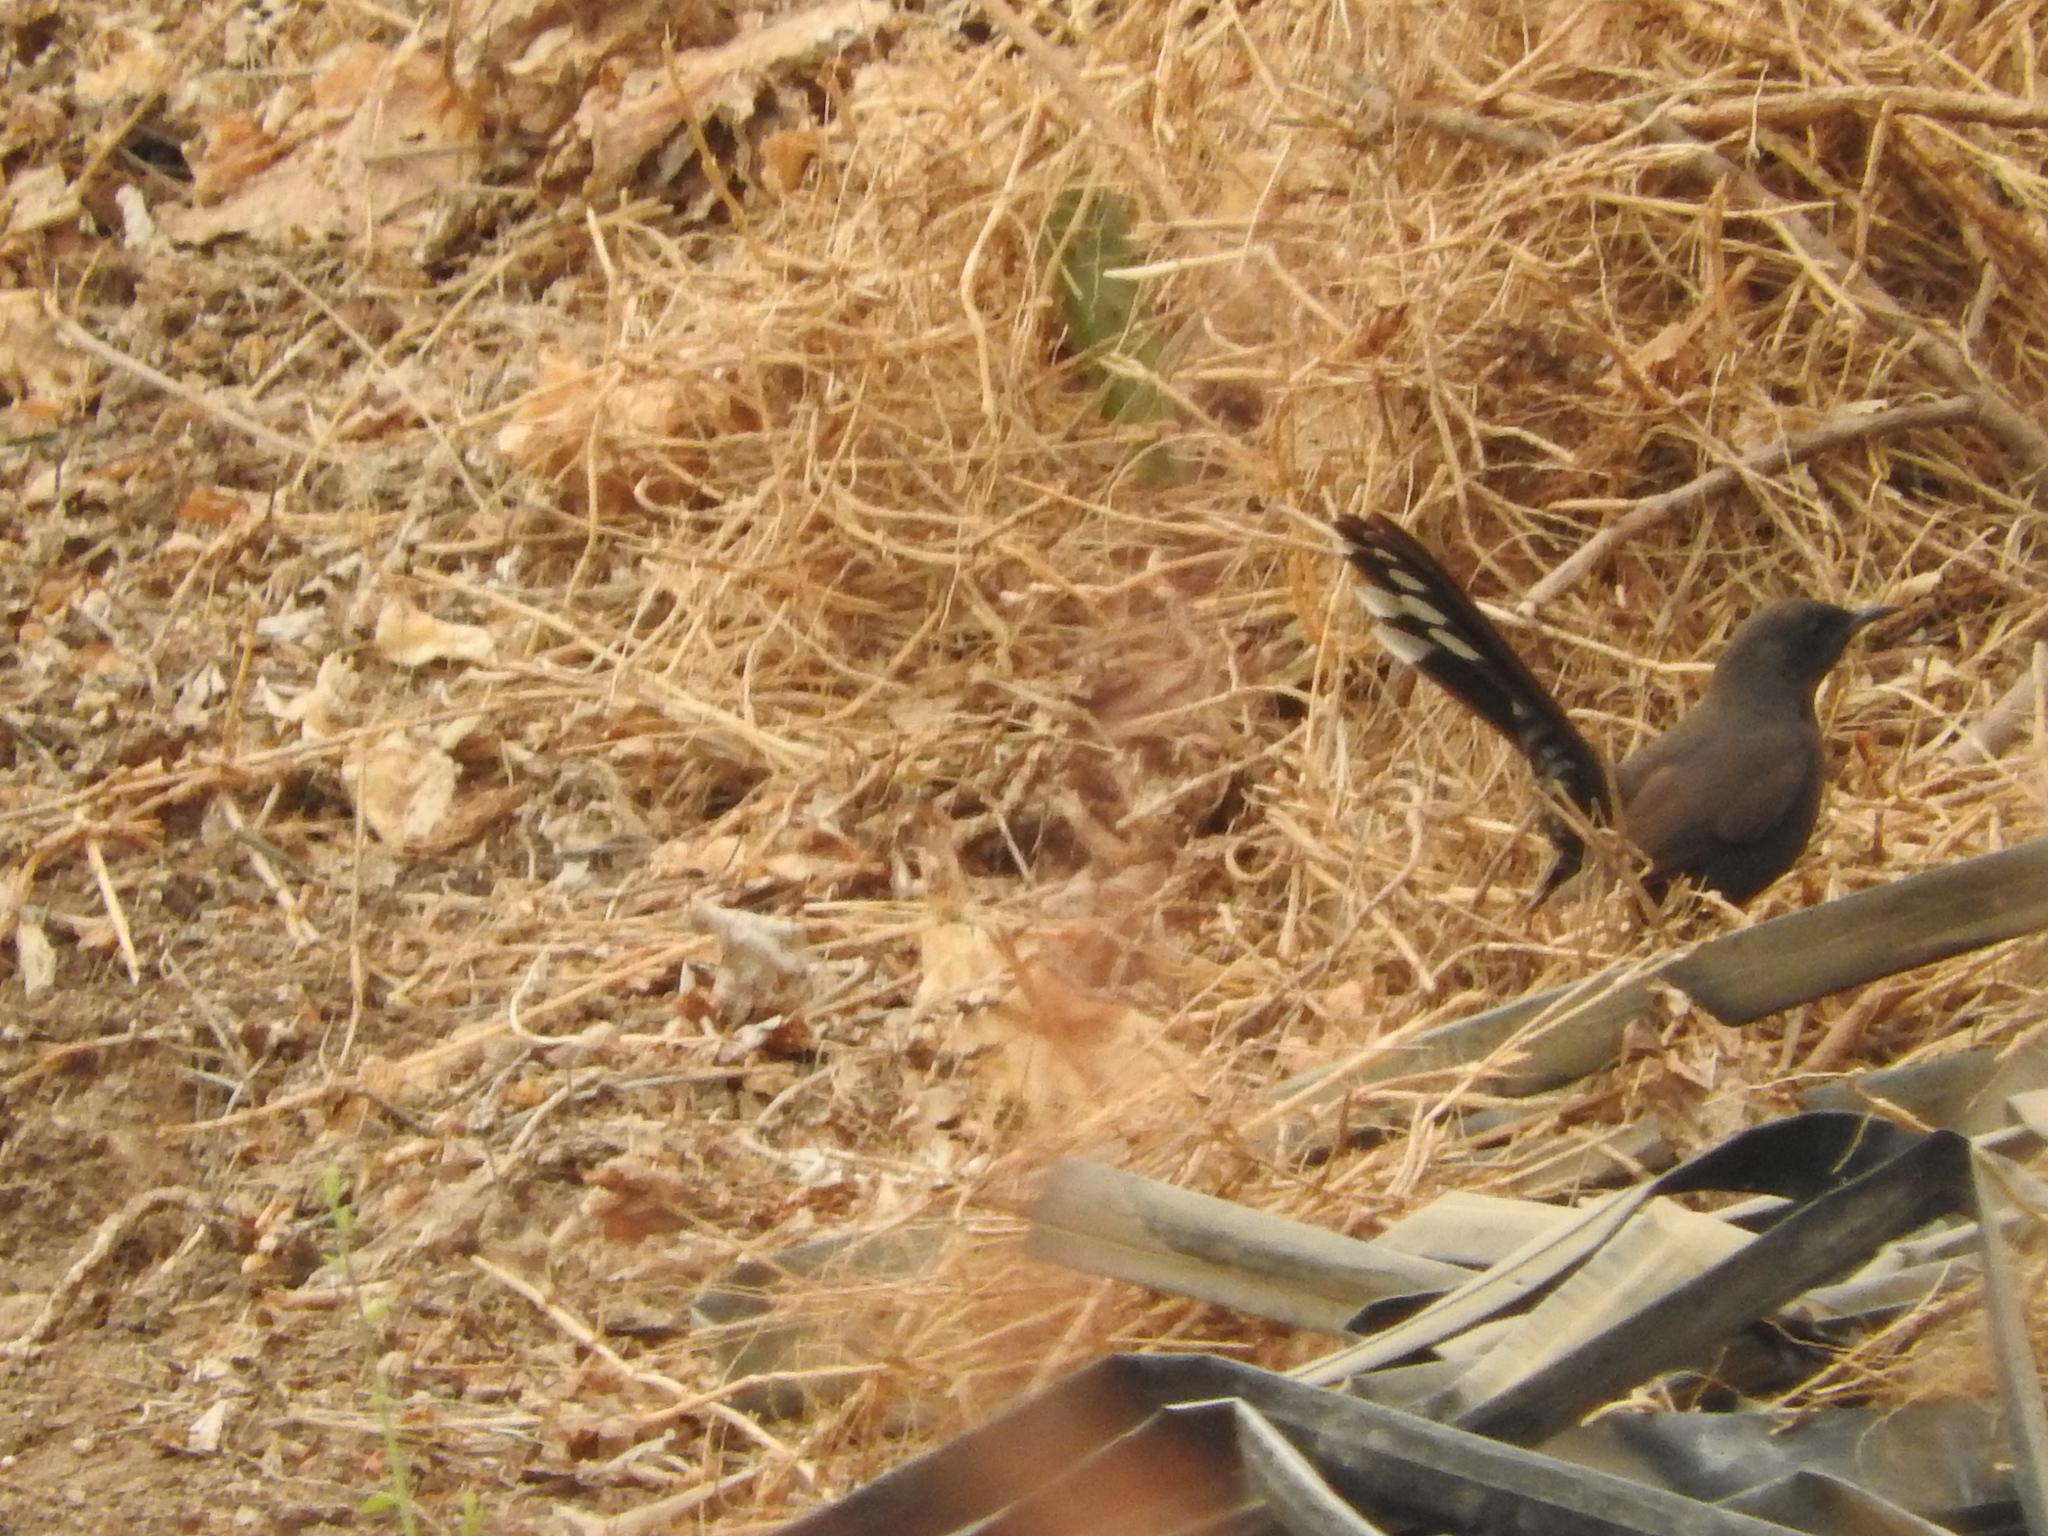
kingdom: Animalia
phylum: Chordata
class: Aves
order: Passeriformes
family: Muscicapidae
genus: Cercotrichas
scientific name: Cercotrichas podobe
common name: Black scrub robin
